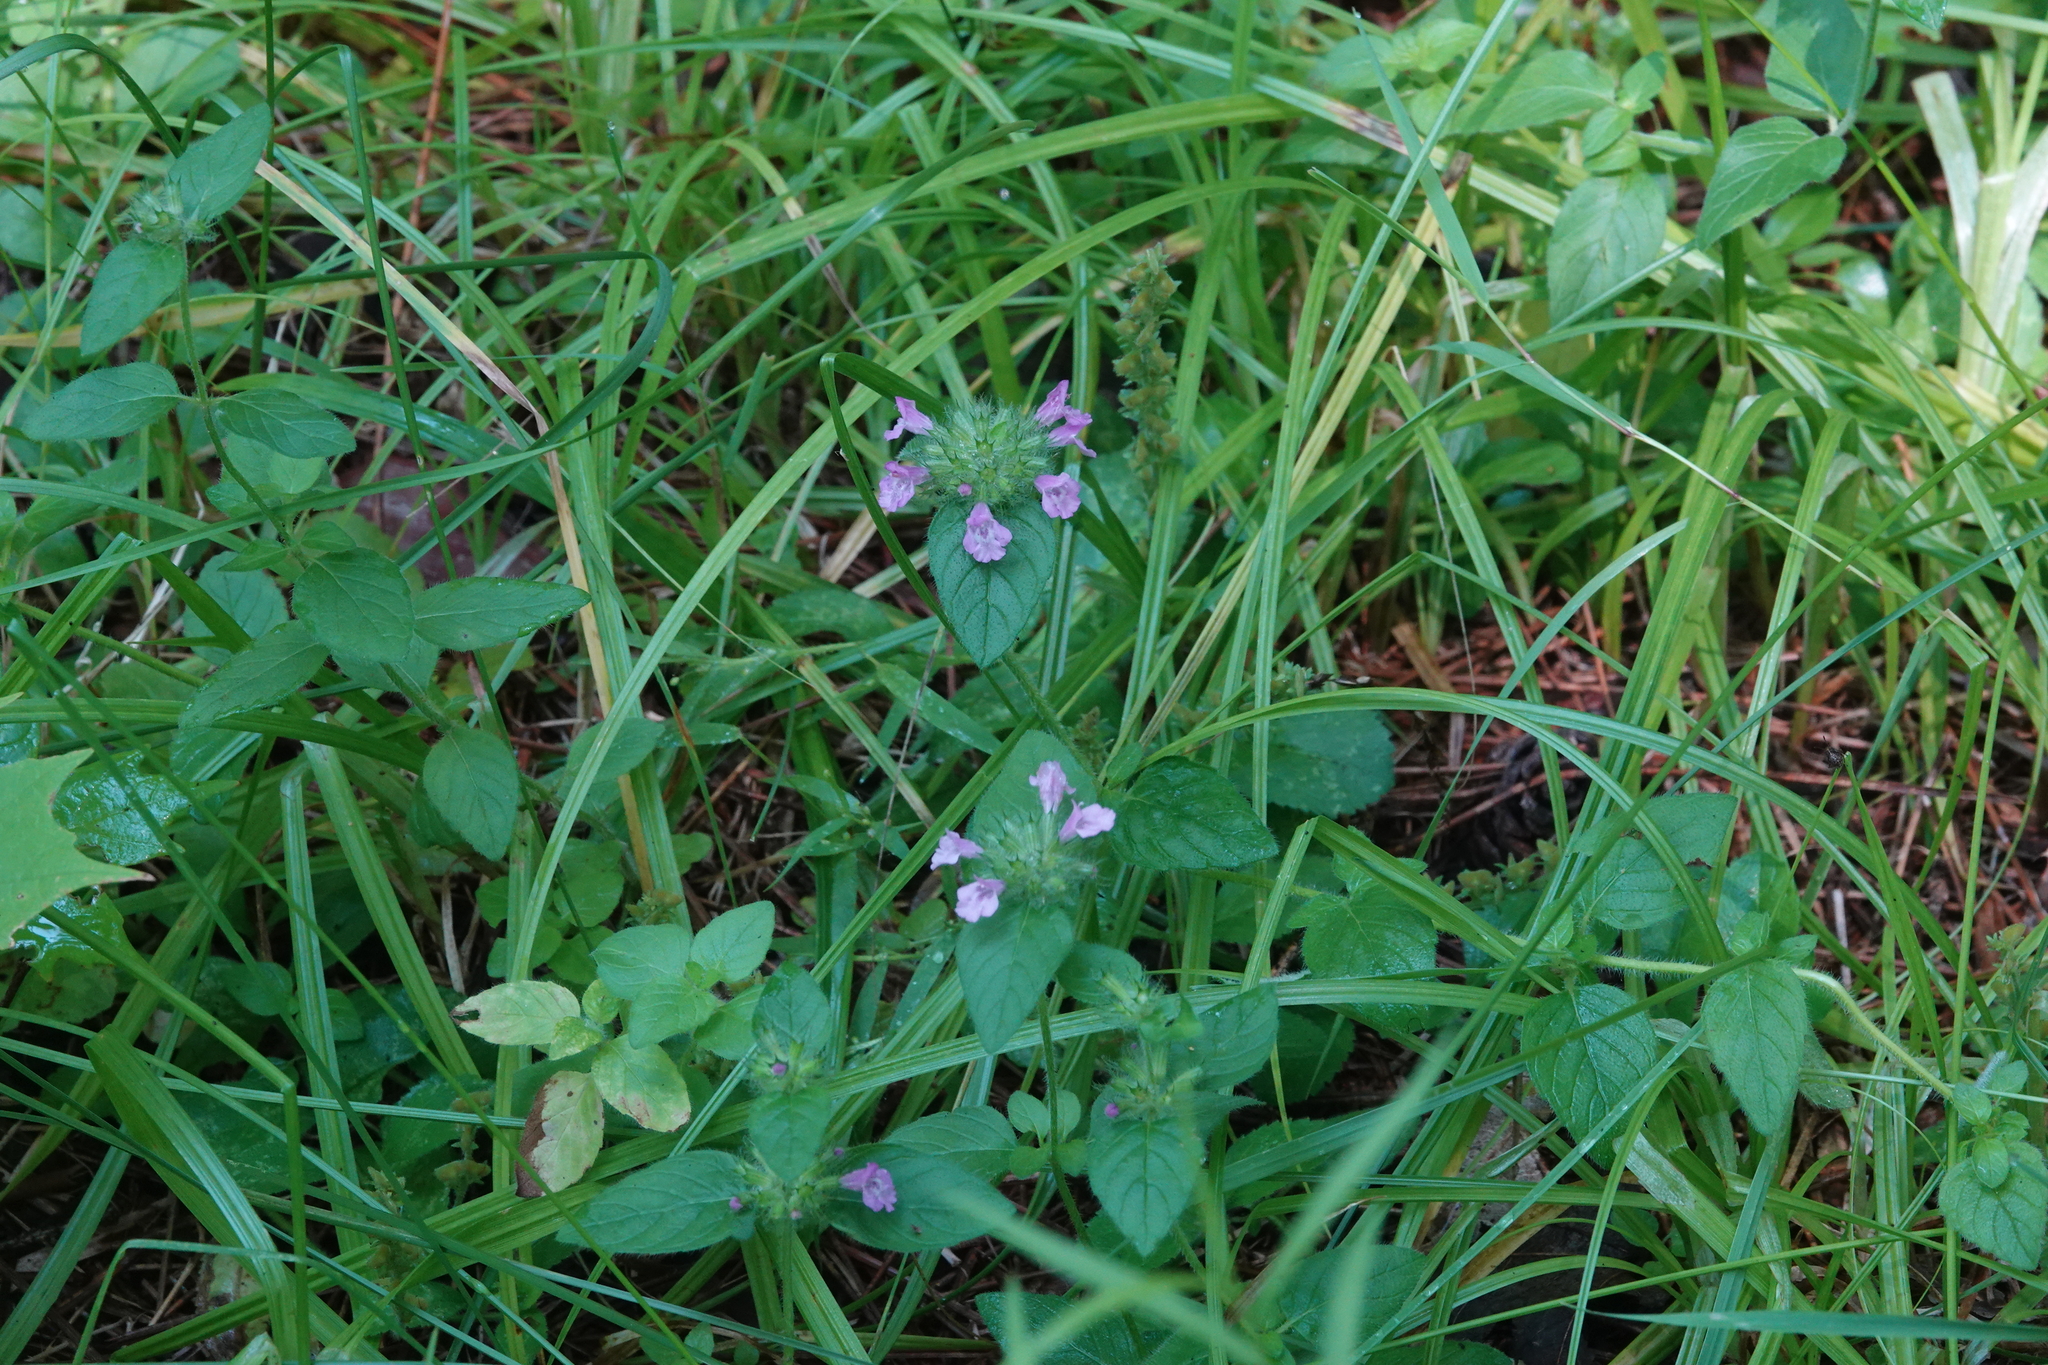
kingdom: Plantae
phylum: Tracheophyta
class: Magnoliopsida
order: Lamiales
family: Lamiaceae
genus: Clinopodium
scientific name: Clinopodium vulgare
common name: Wild basil
